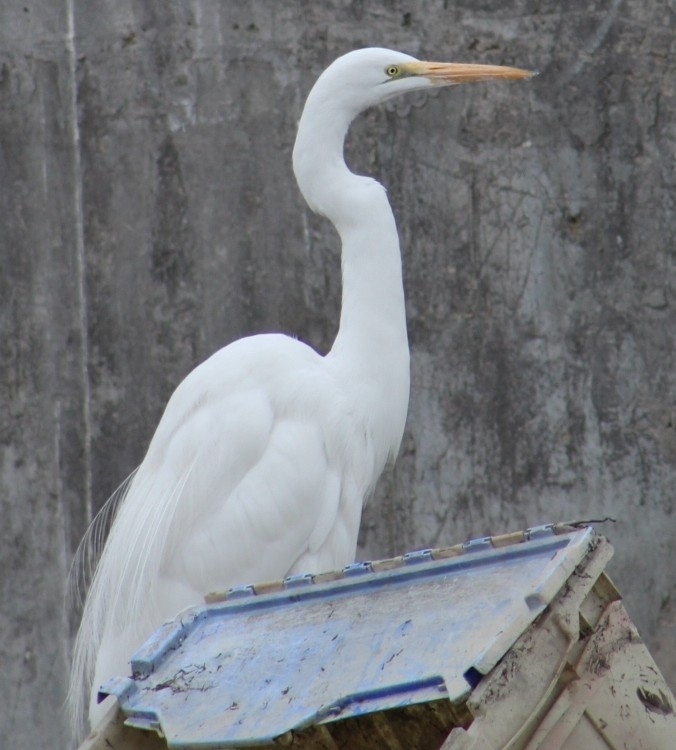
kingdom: Animalia
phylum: Chordata
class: Aves
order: Pelecaniformes
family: Ardeidae
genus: Ardea
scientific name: Ardea alba
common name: Great egret
